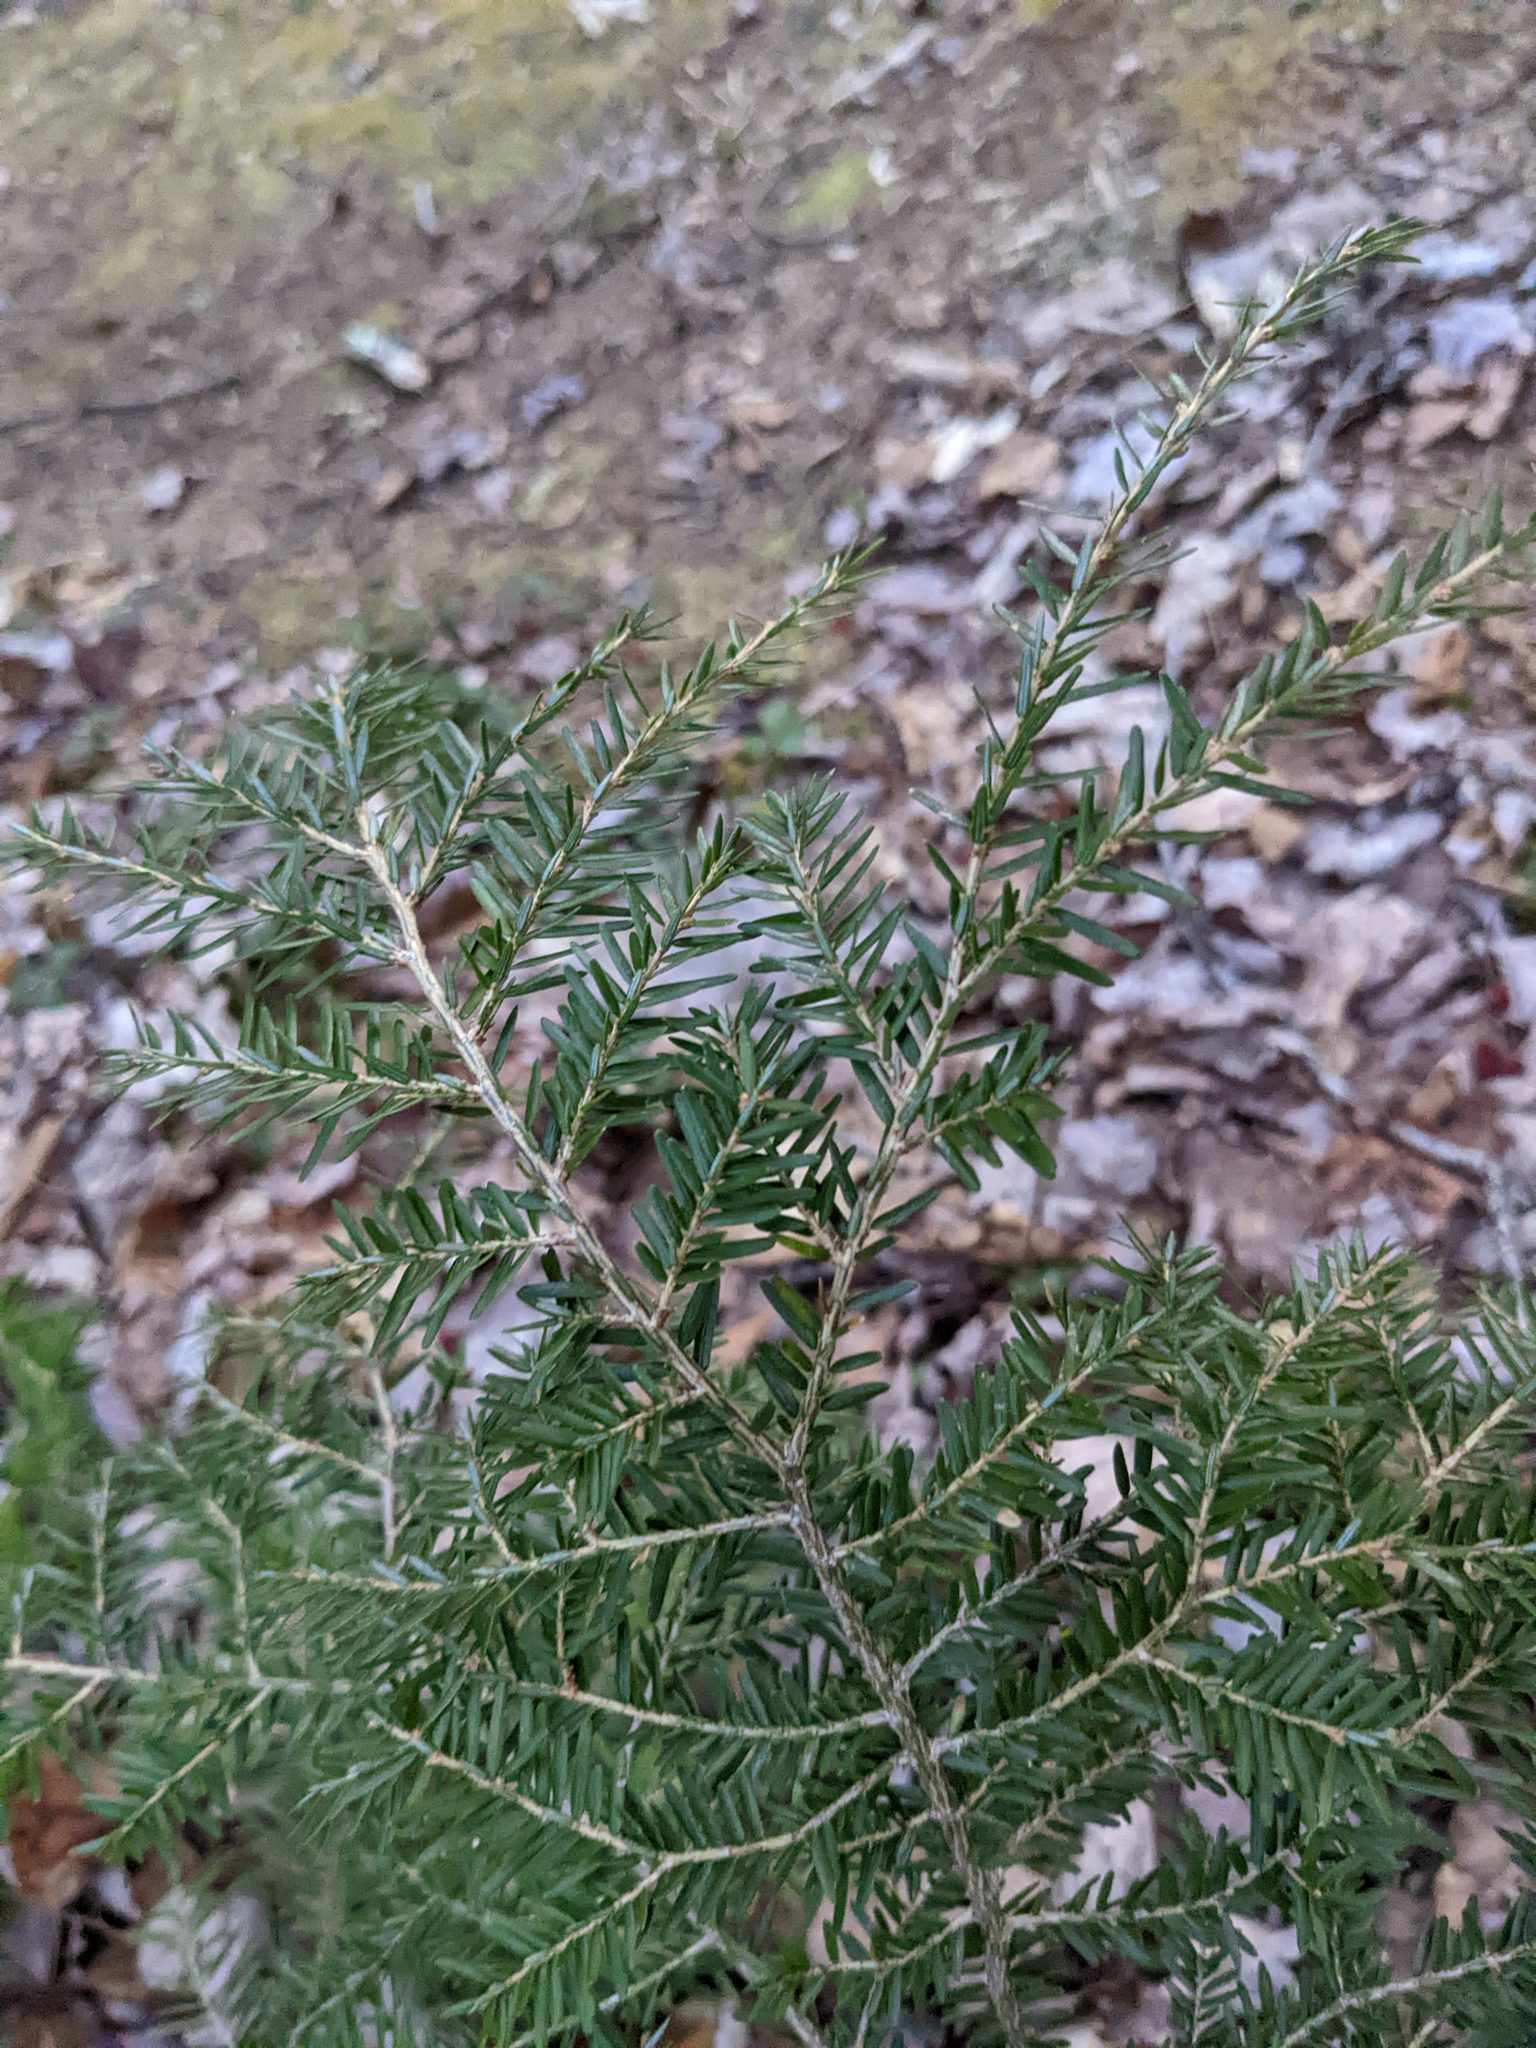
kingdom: Plantae
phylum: Tracheophyta
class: Pinopsida
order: Pinales
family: Pinaceae
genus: Tsuga
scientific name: Tsuga canadensis
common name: Eastern hemlock
